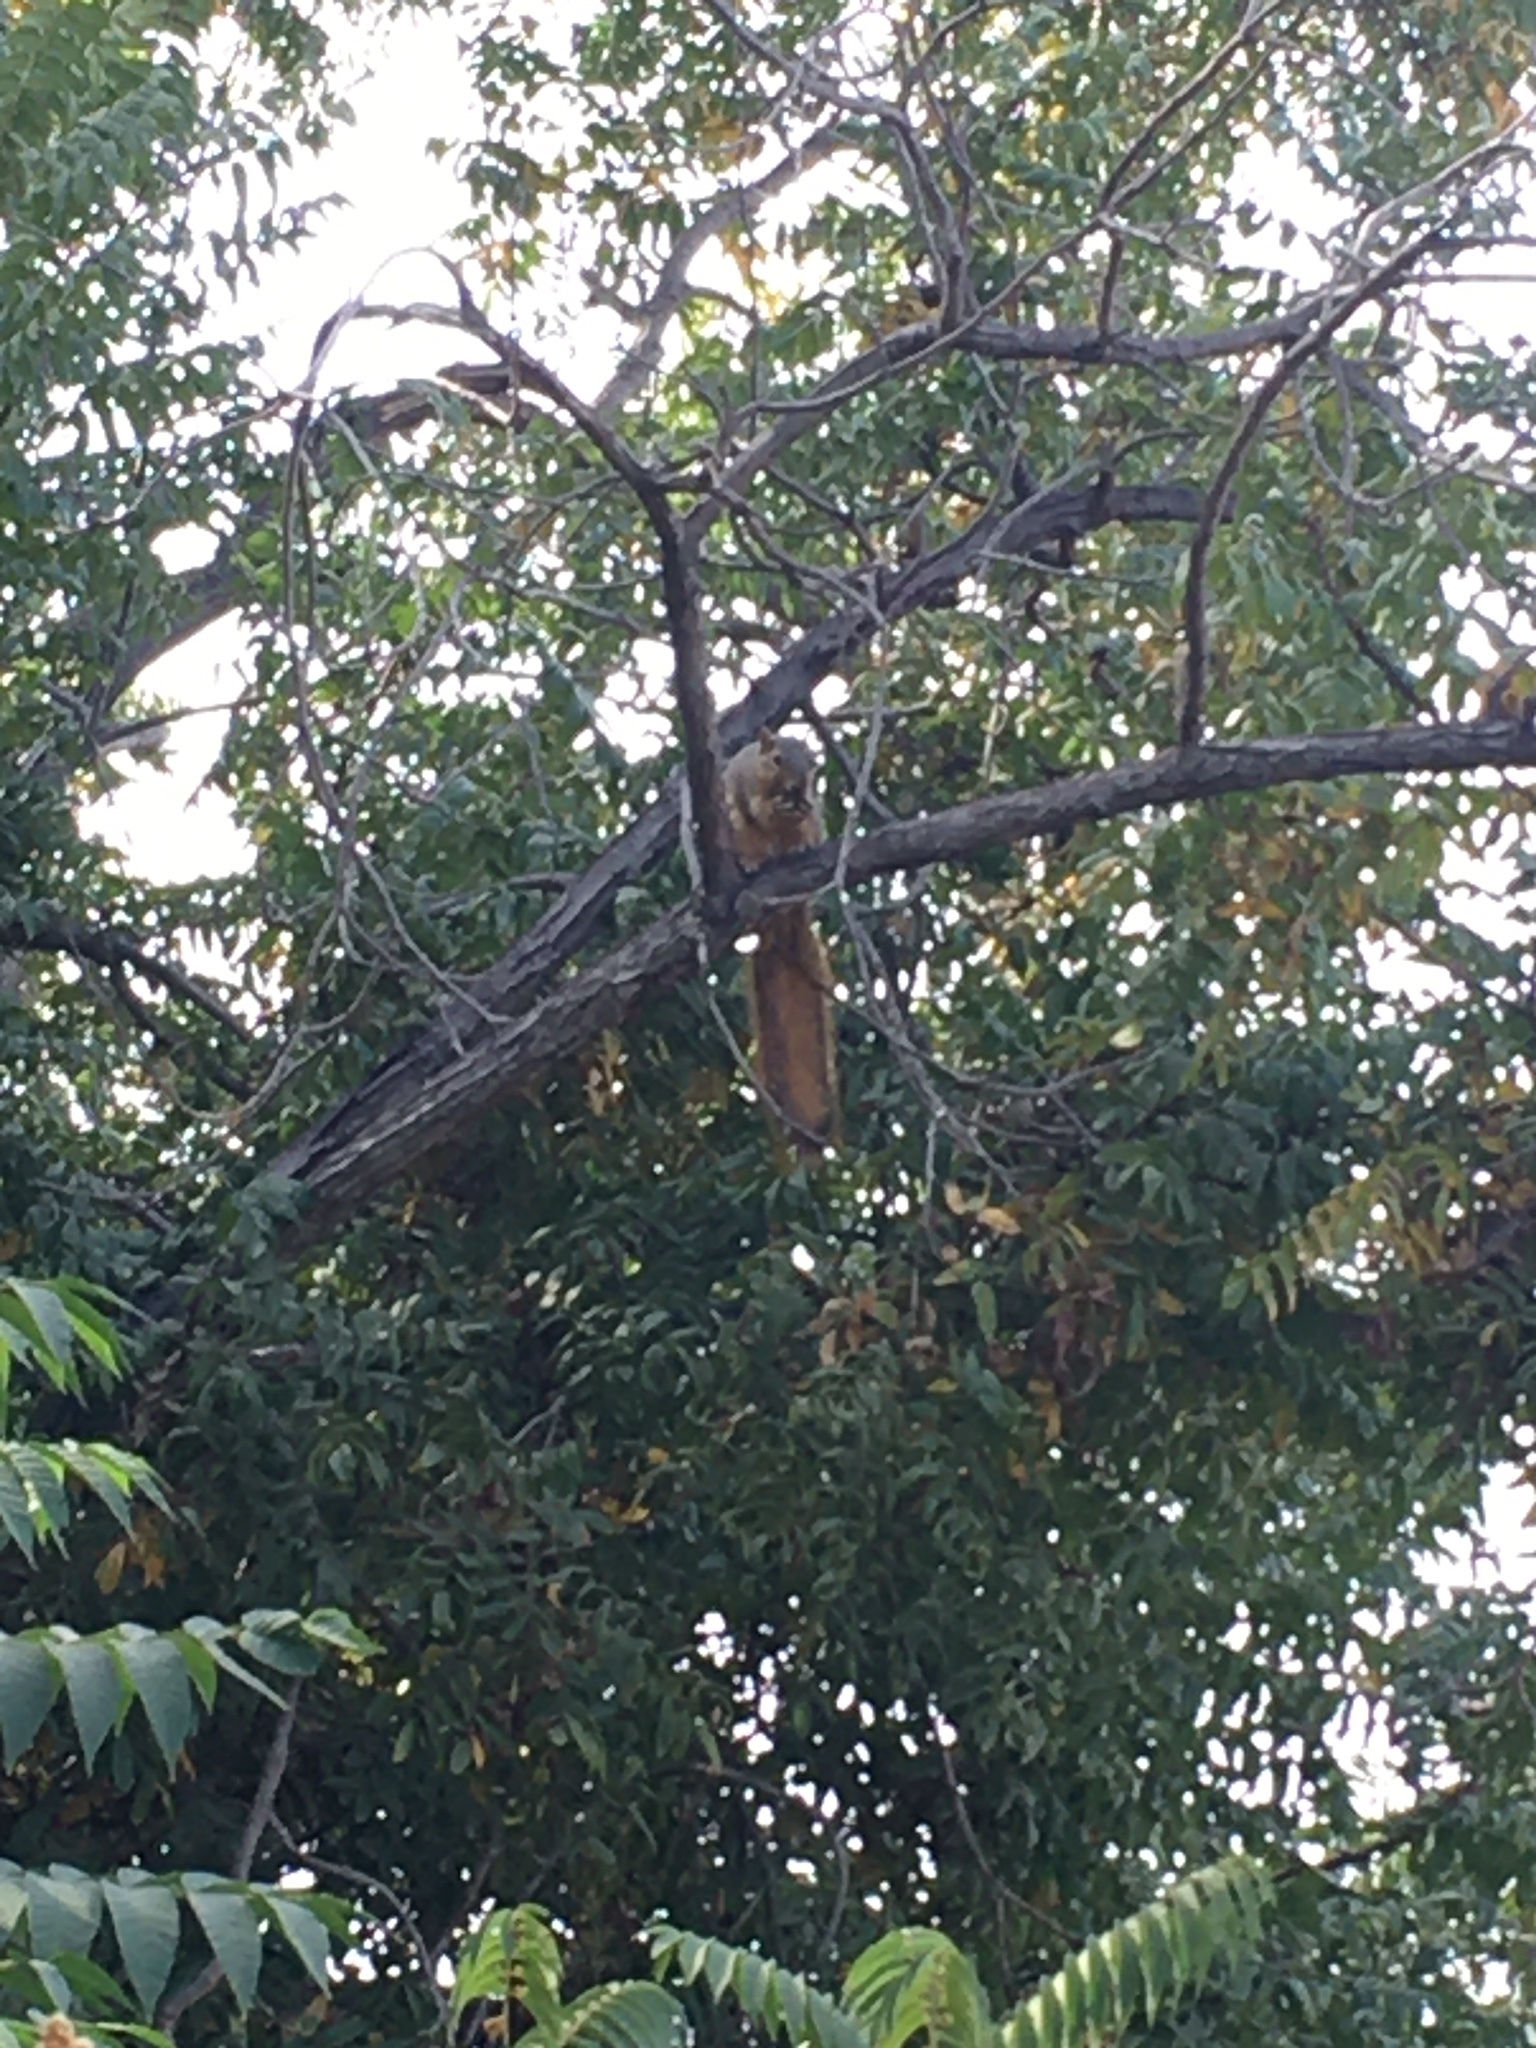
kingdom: Animalia
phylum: Chordata
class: Mammalia
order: Rodentia
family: Sciuridae
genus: Sciurus
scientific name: Sciurus niger
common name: Fox squirrel
